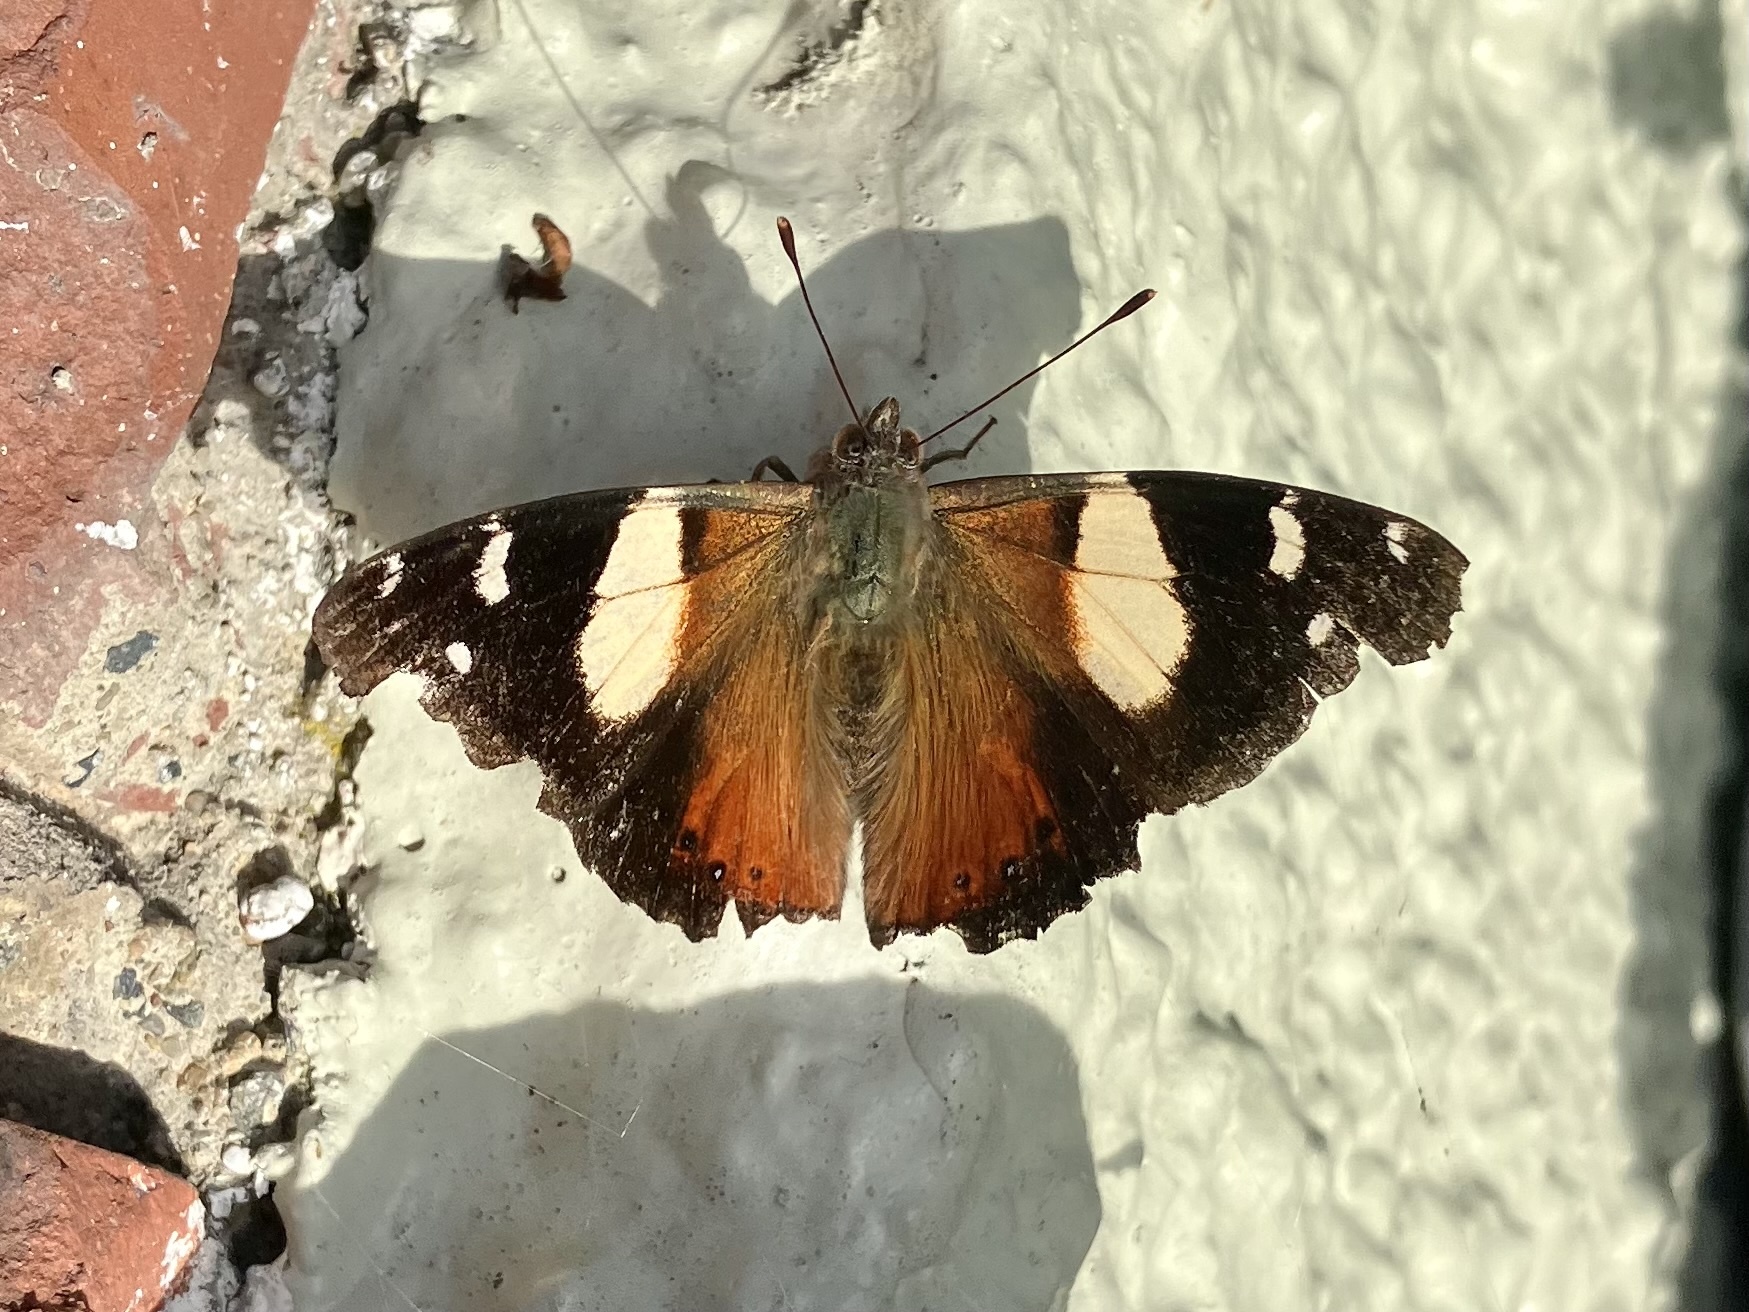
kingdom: Animalia
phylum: Arthropoda
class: Insecta
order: Lepidoptera
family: Nymphalidae
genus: Vanessa
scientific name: Vanessa itea
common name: Yellow admiral
